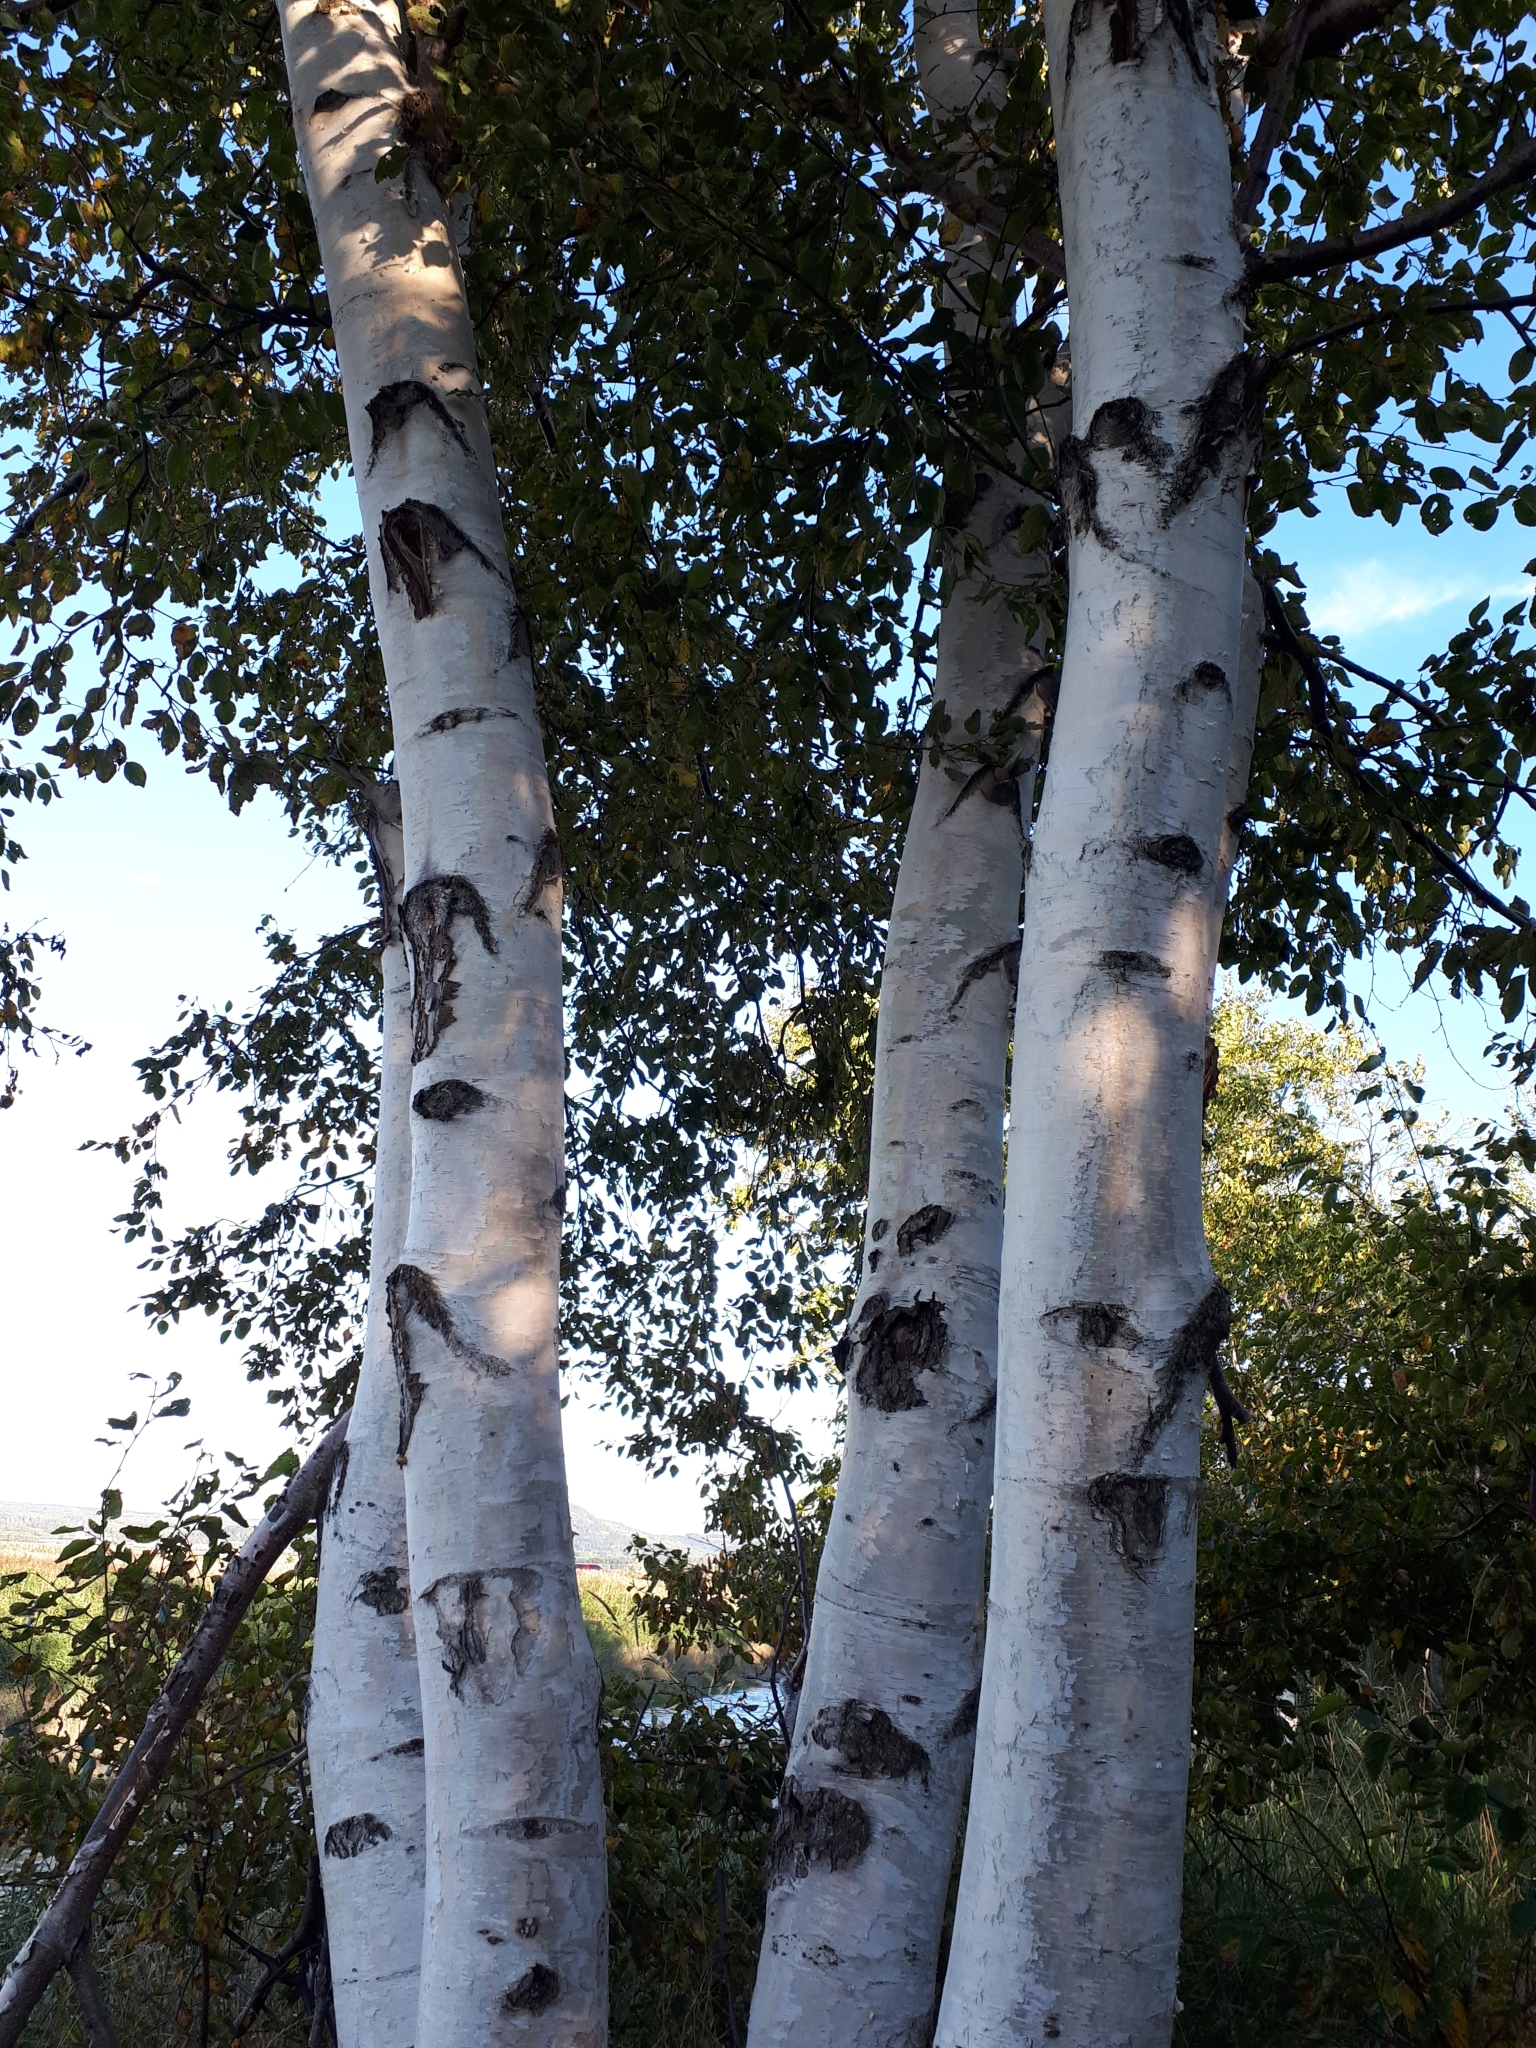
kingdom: Plantae
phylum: Tracheophyta
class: Magnoliopsida
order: Fagales
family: Betulaceae
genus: Betula
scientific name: Betula papyrifera
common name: Paper birch
